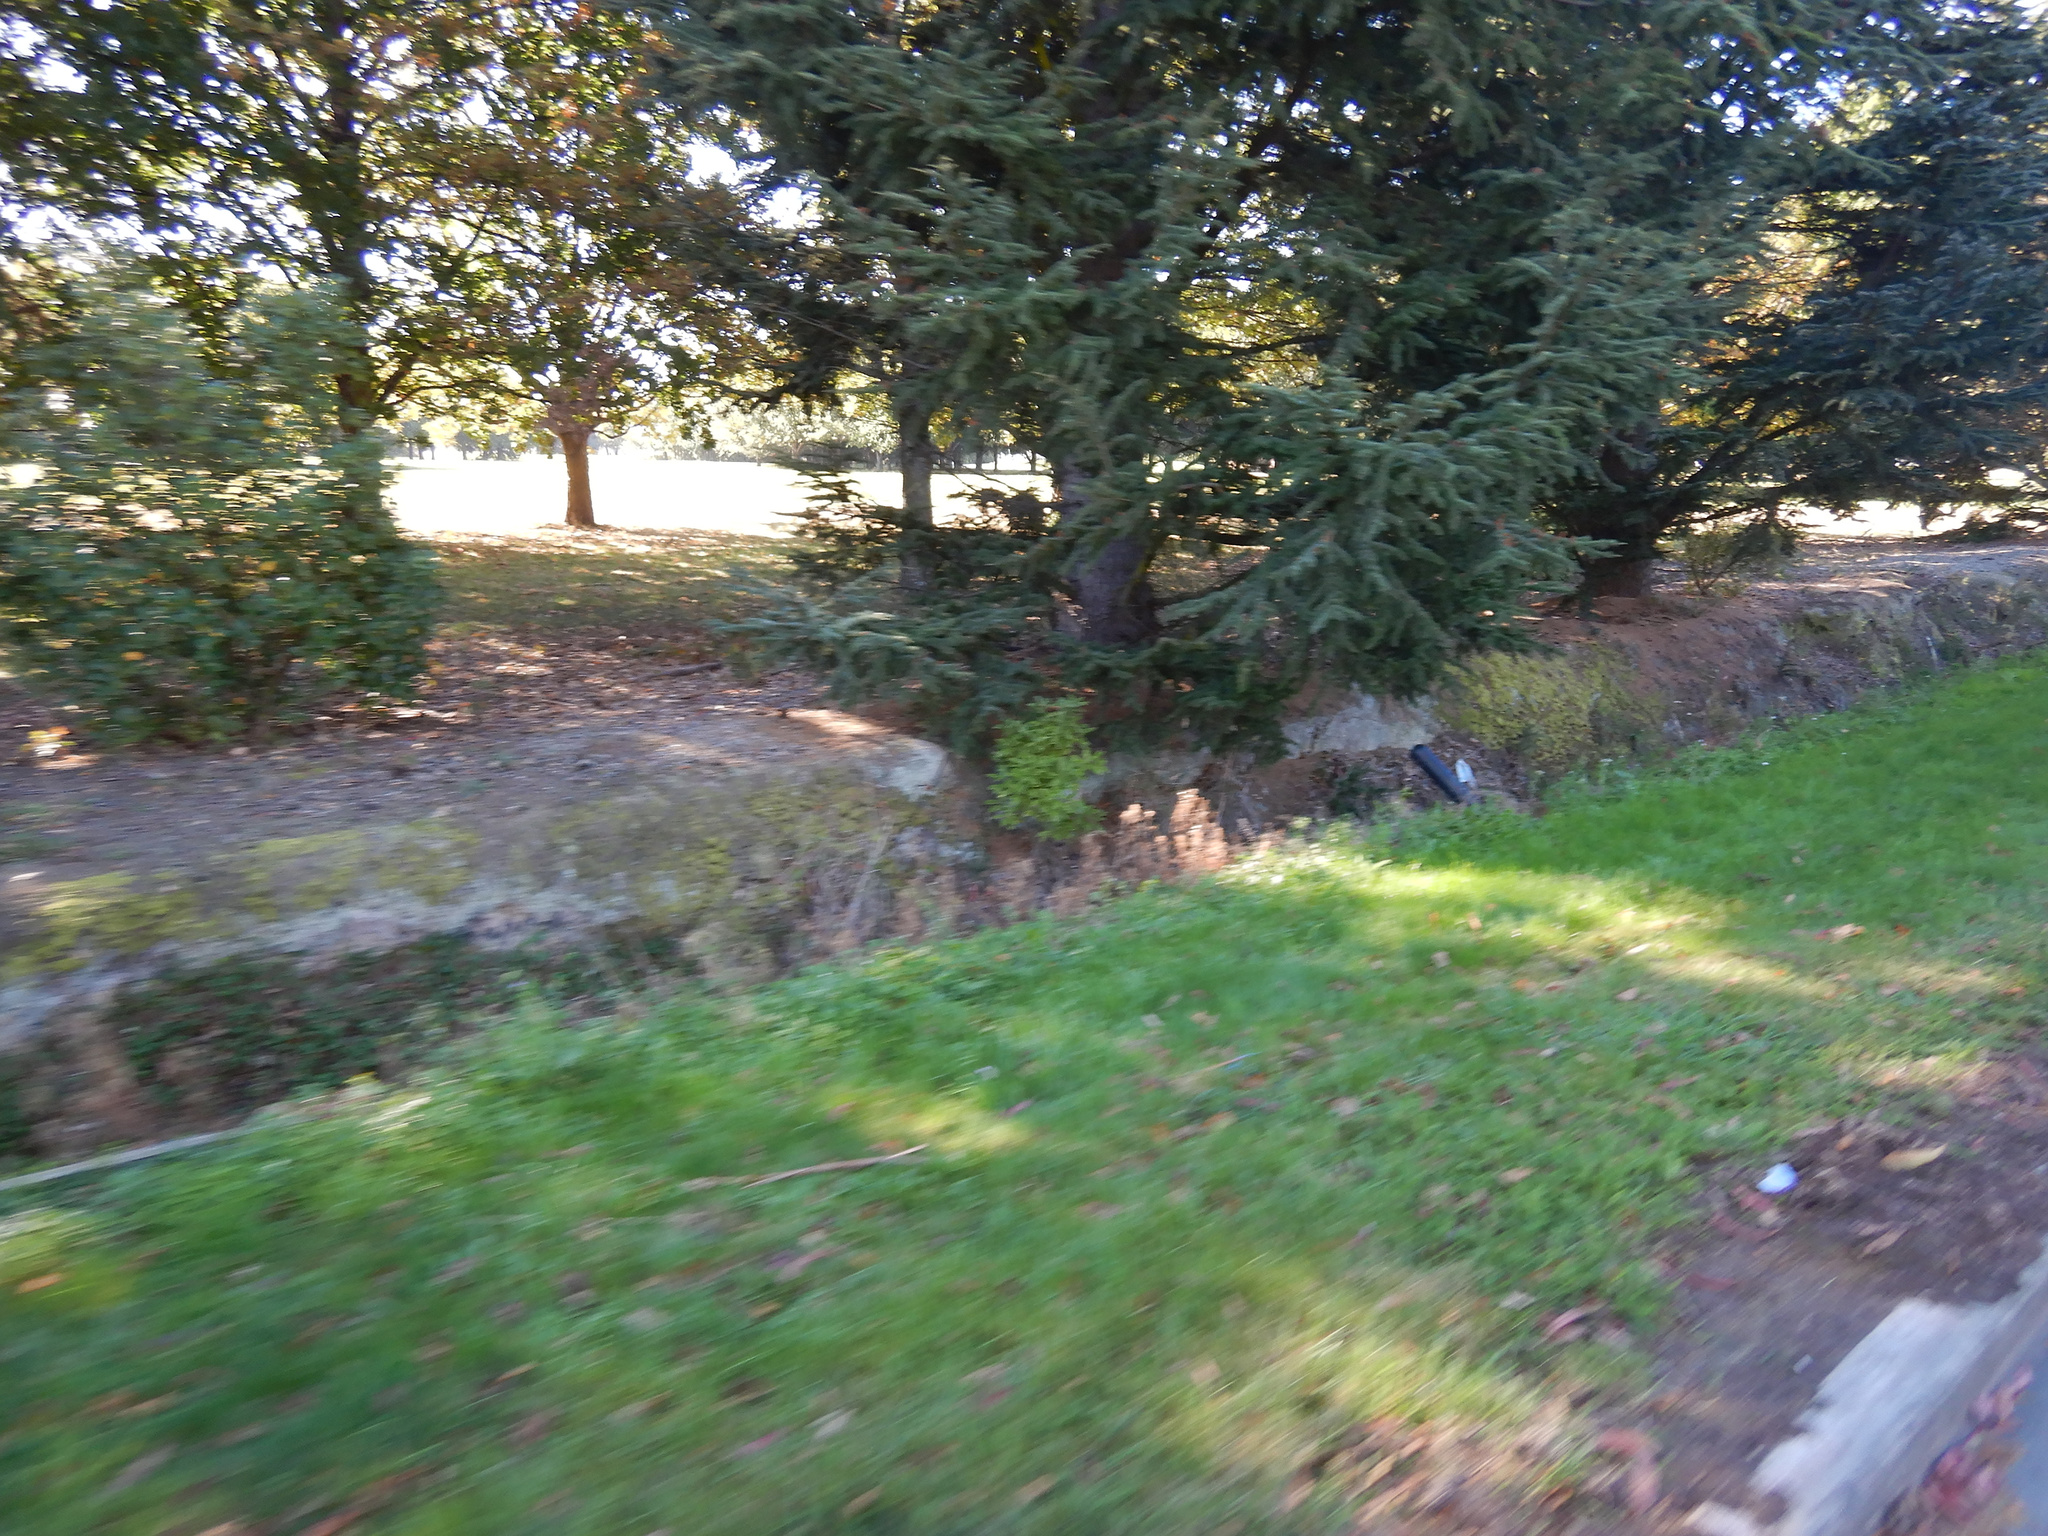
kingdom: Plantae
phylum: Tracheophyta
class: Magnoliopsida
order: Apiales
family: Pittosporaceae
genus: Pittosporum
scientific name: Pittosporum eugenioides
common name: Lemonwood
